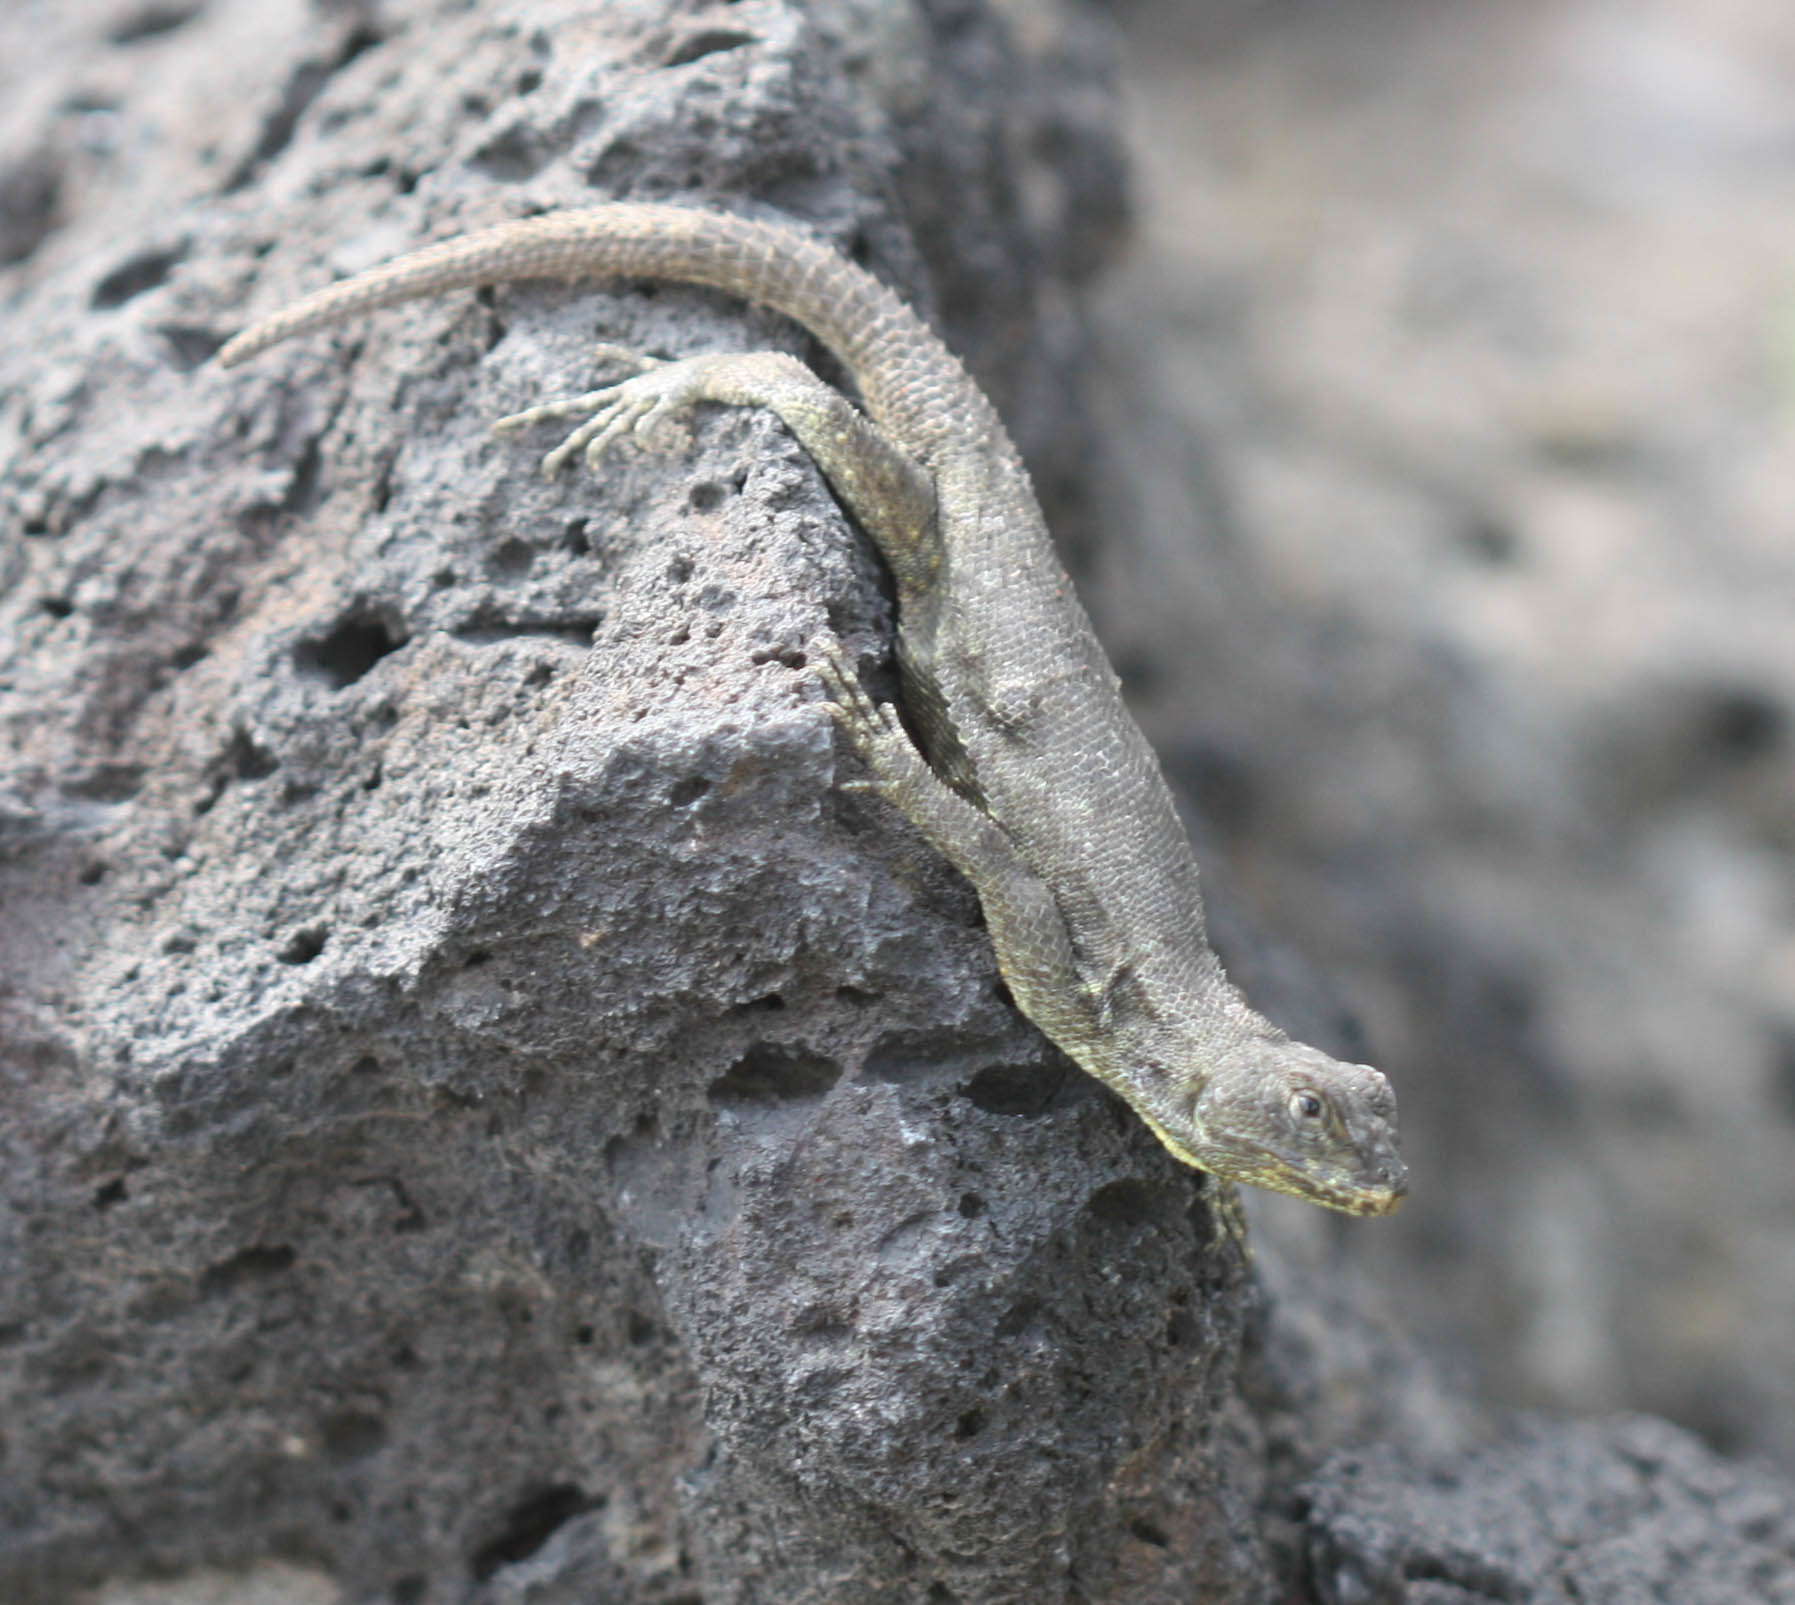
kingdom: Animalia
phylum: Chordata
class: Squamata
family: Phrynosomatidae
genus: Sceloporus
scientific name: Sceloporus grammicus
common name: Mesquite lizard
